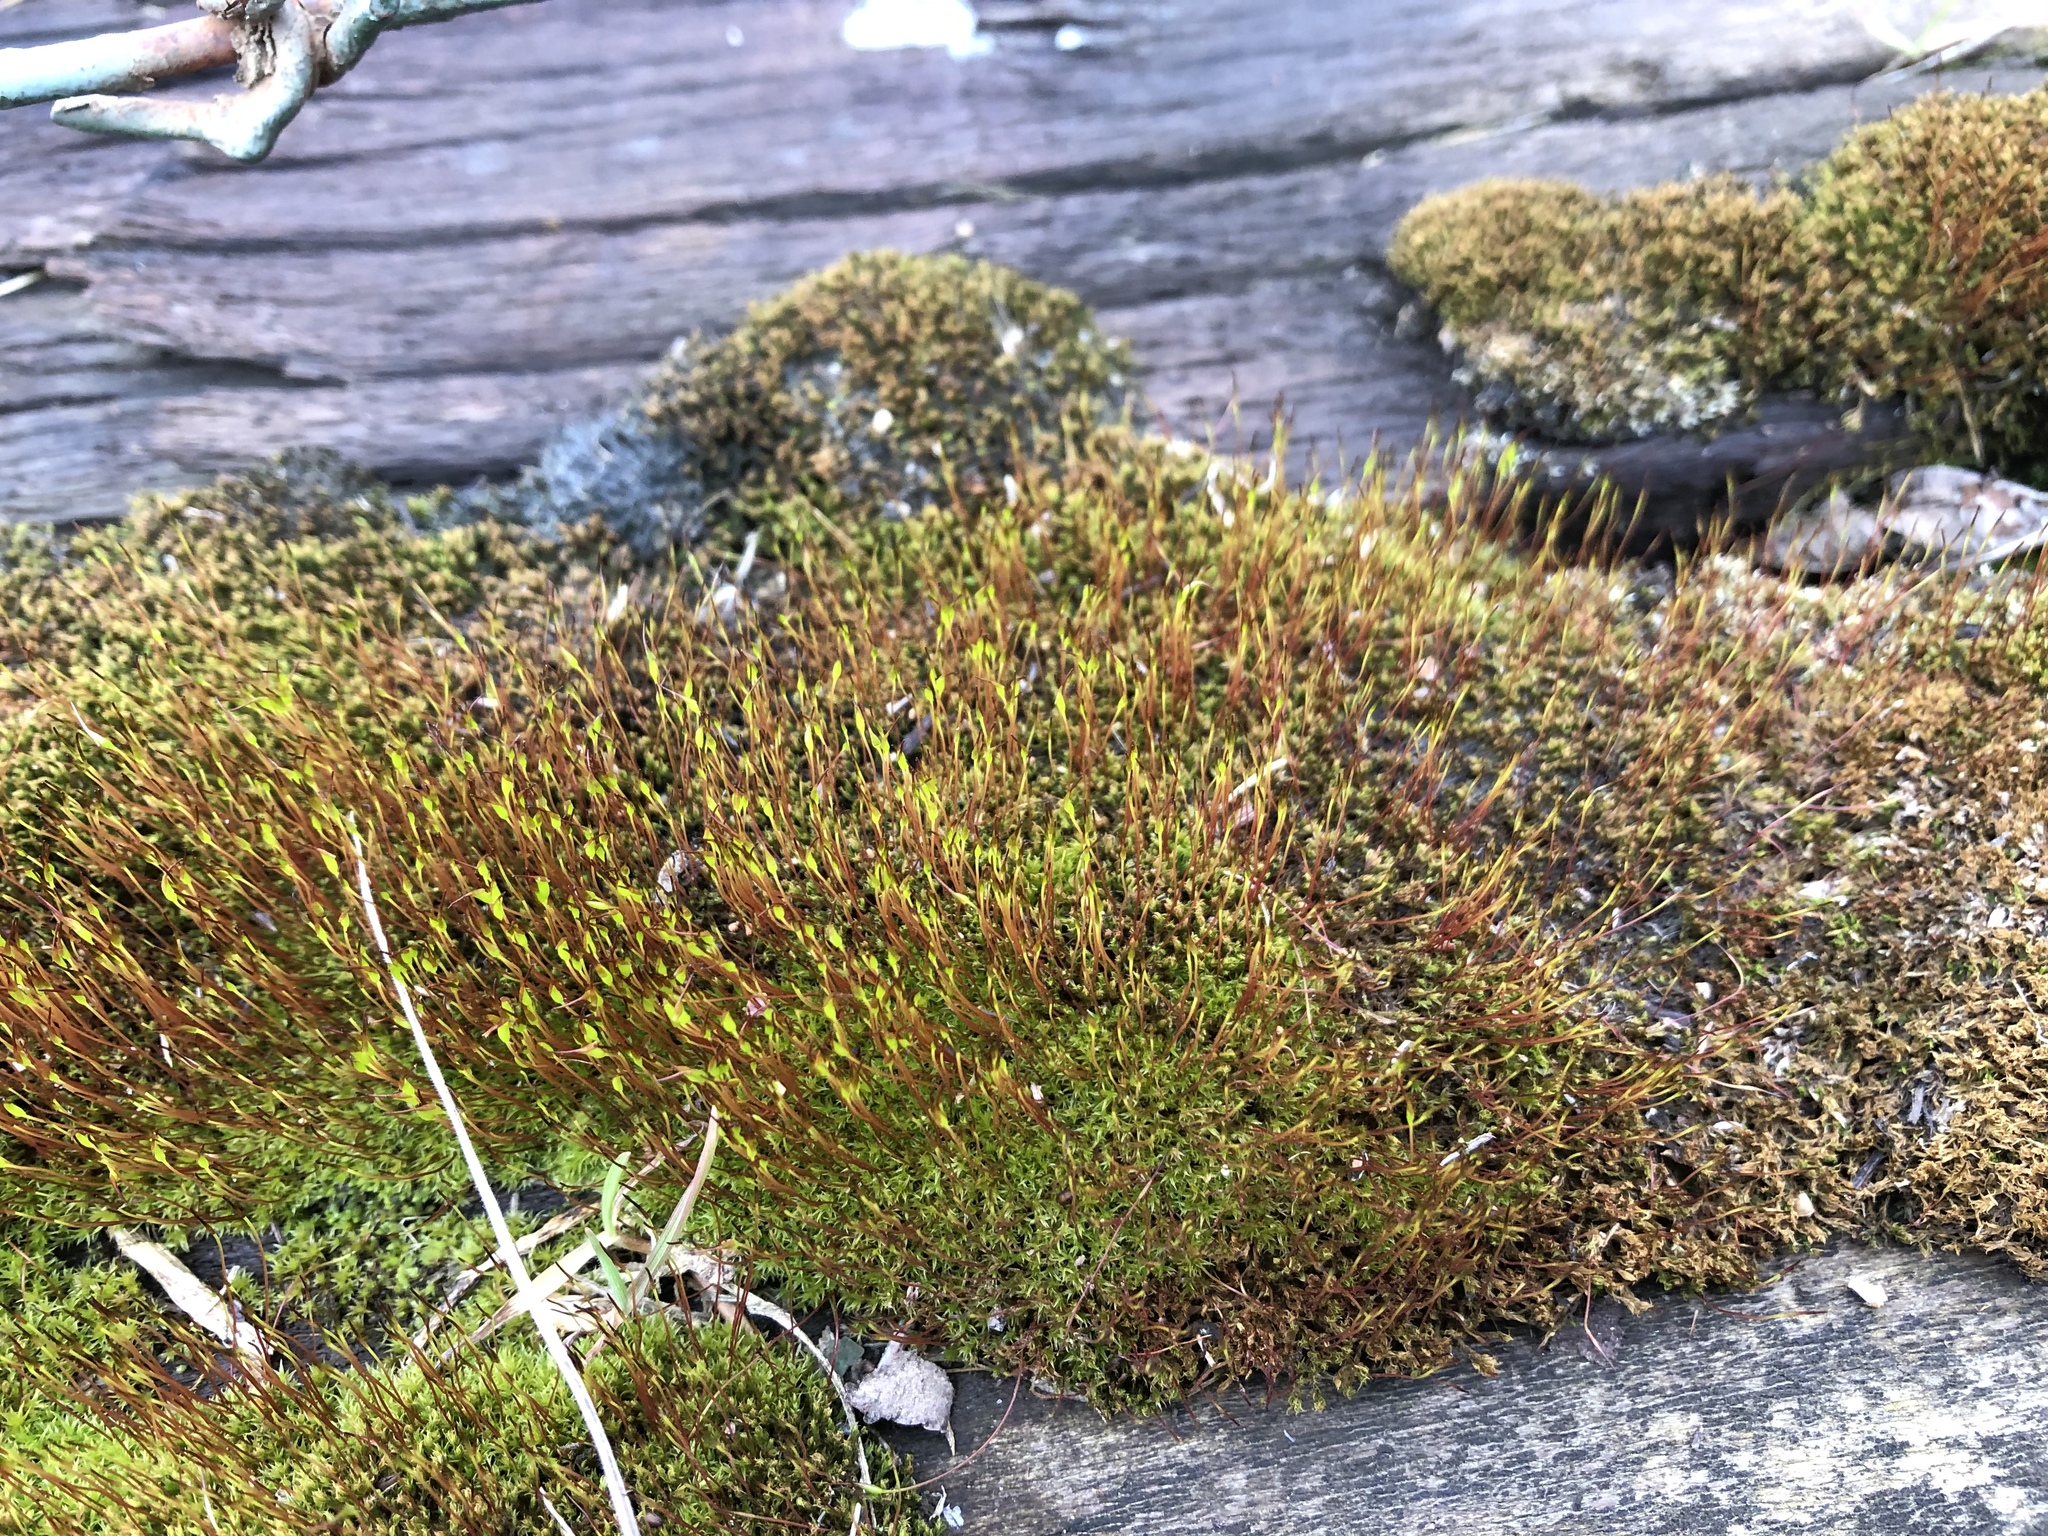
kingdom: Plantae
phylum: Bryophyta
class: Bryopsida
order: Dicranales
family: Ditrichaceae
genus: Ceratodon
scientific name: Ceratodon purpureus
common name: Redshank
